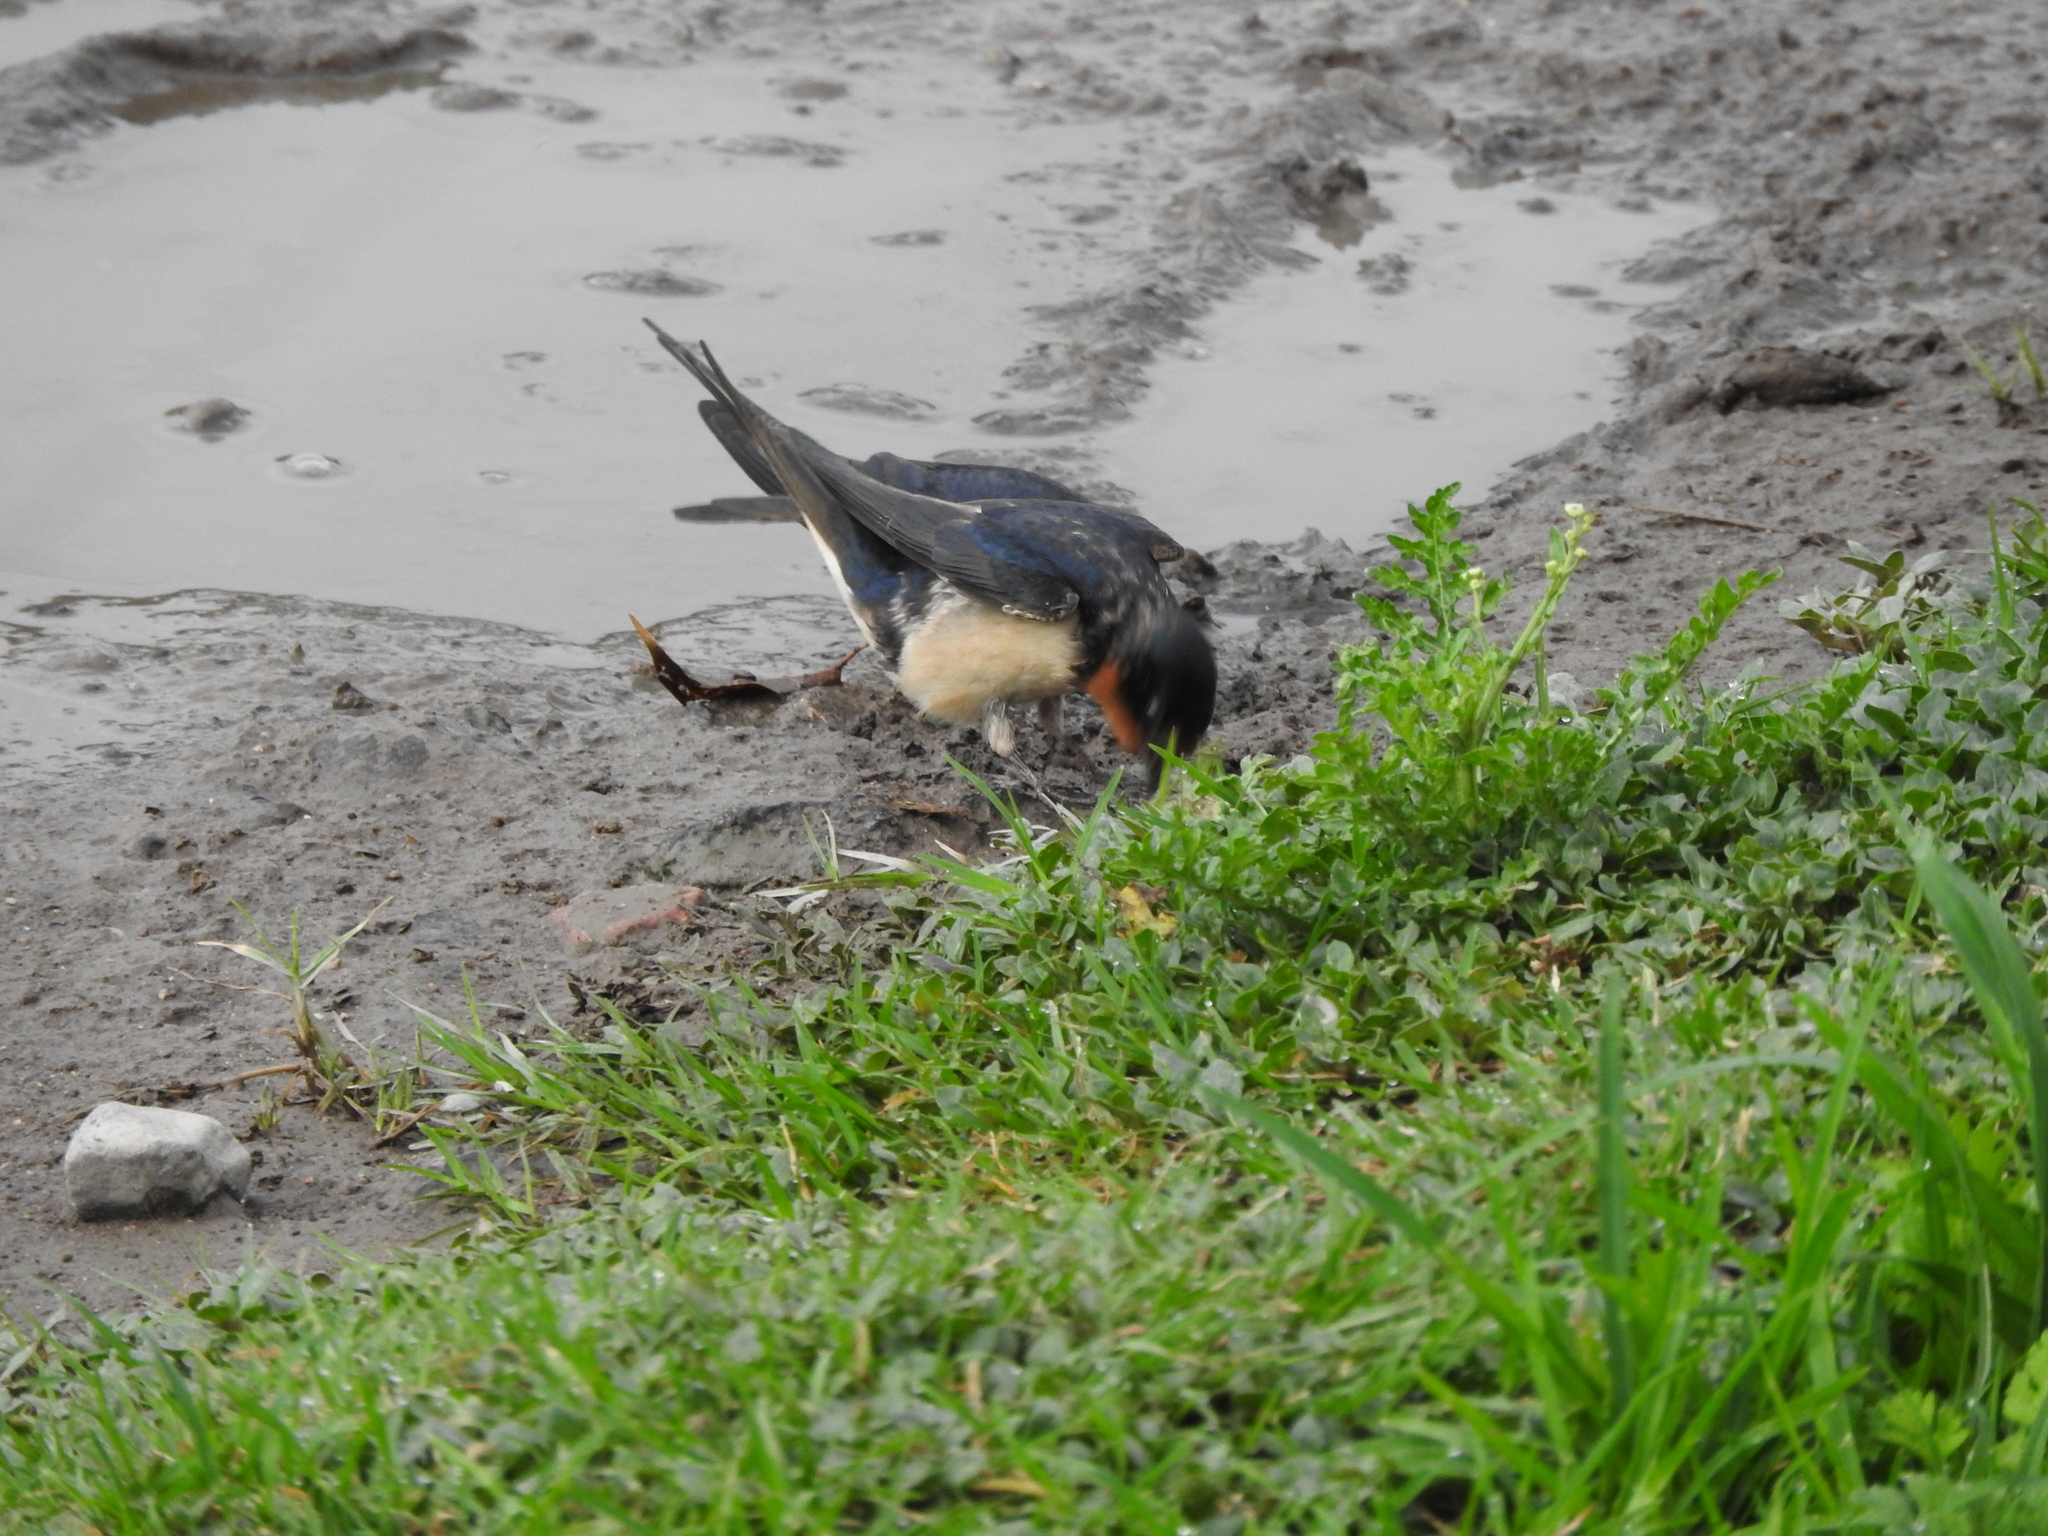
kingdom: Animalia
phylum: Chordata
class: Aves
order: Passeriformes
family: Hirundinidae
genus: Hirundo
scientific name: Hirundo rustica
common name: Barn swallow
